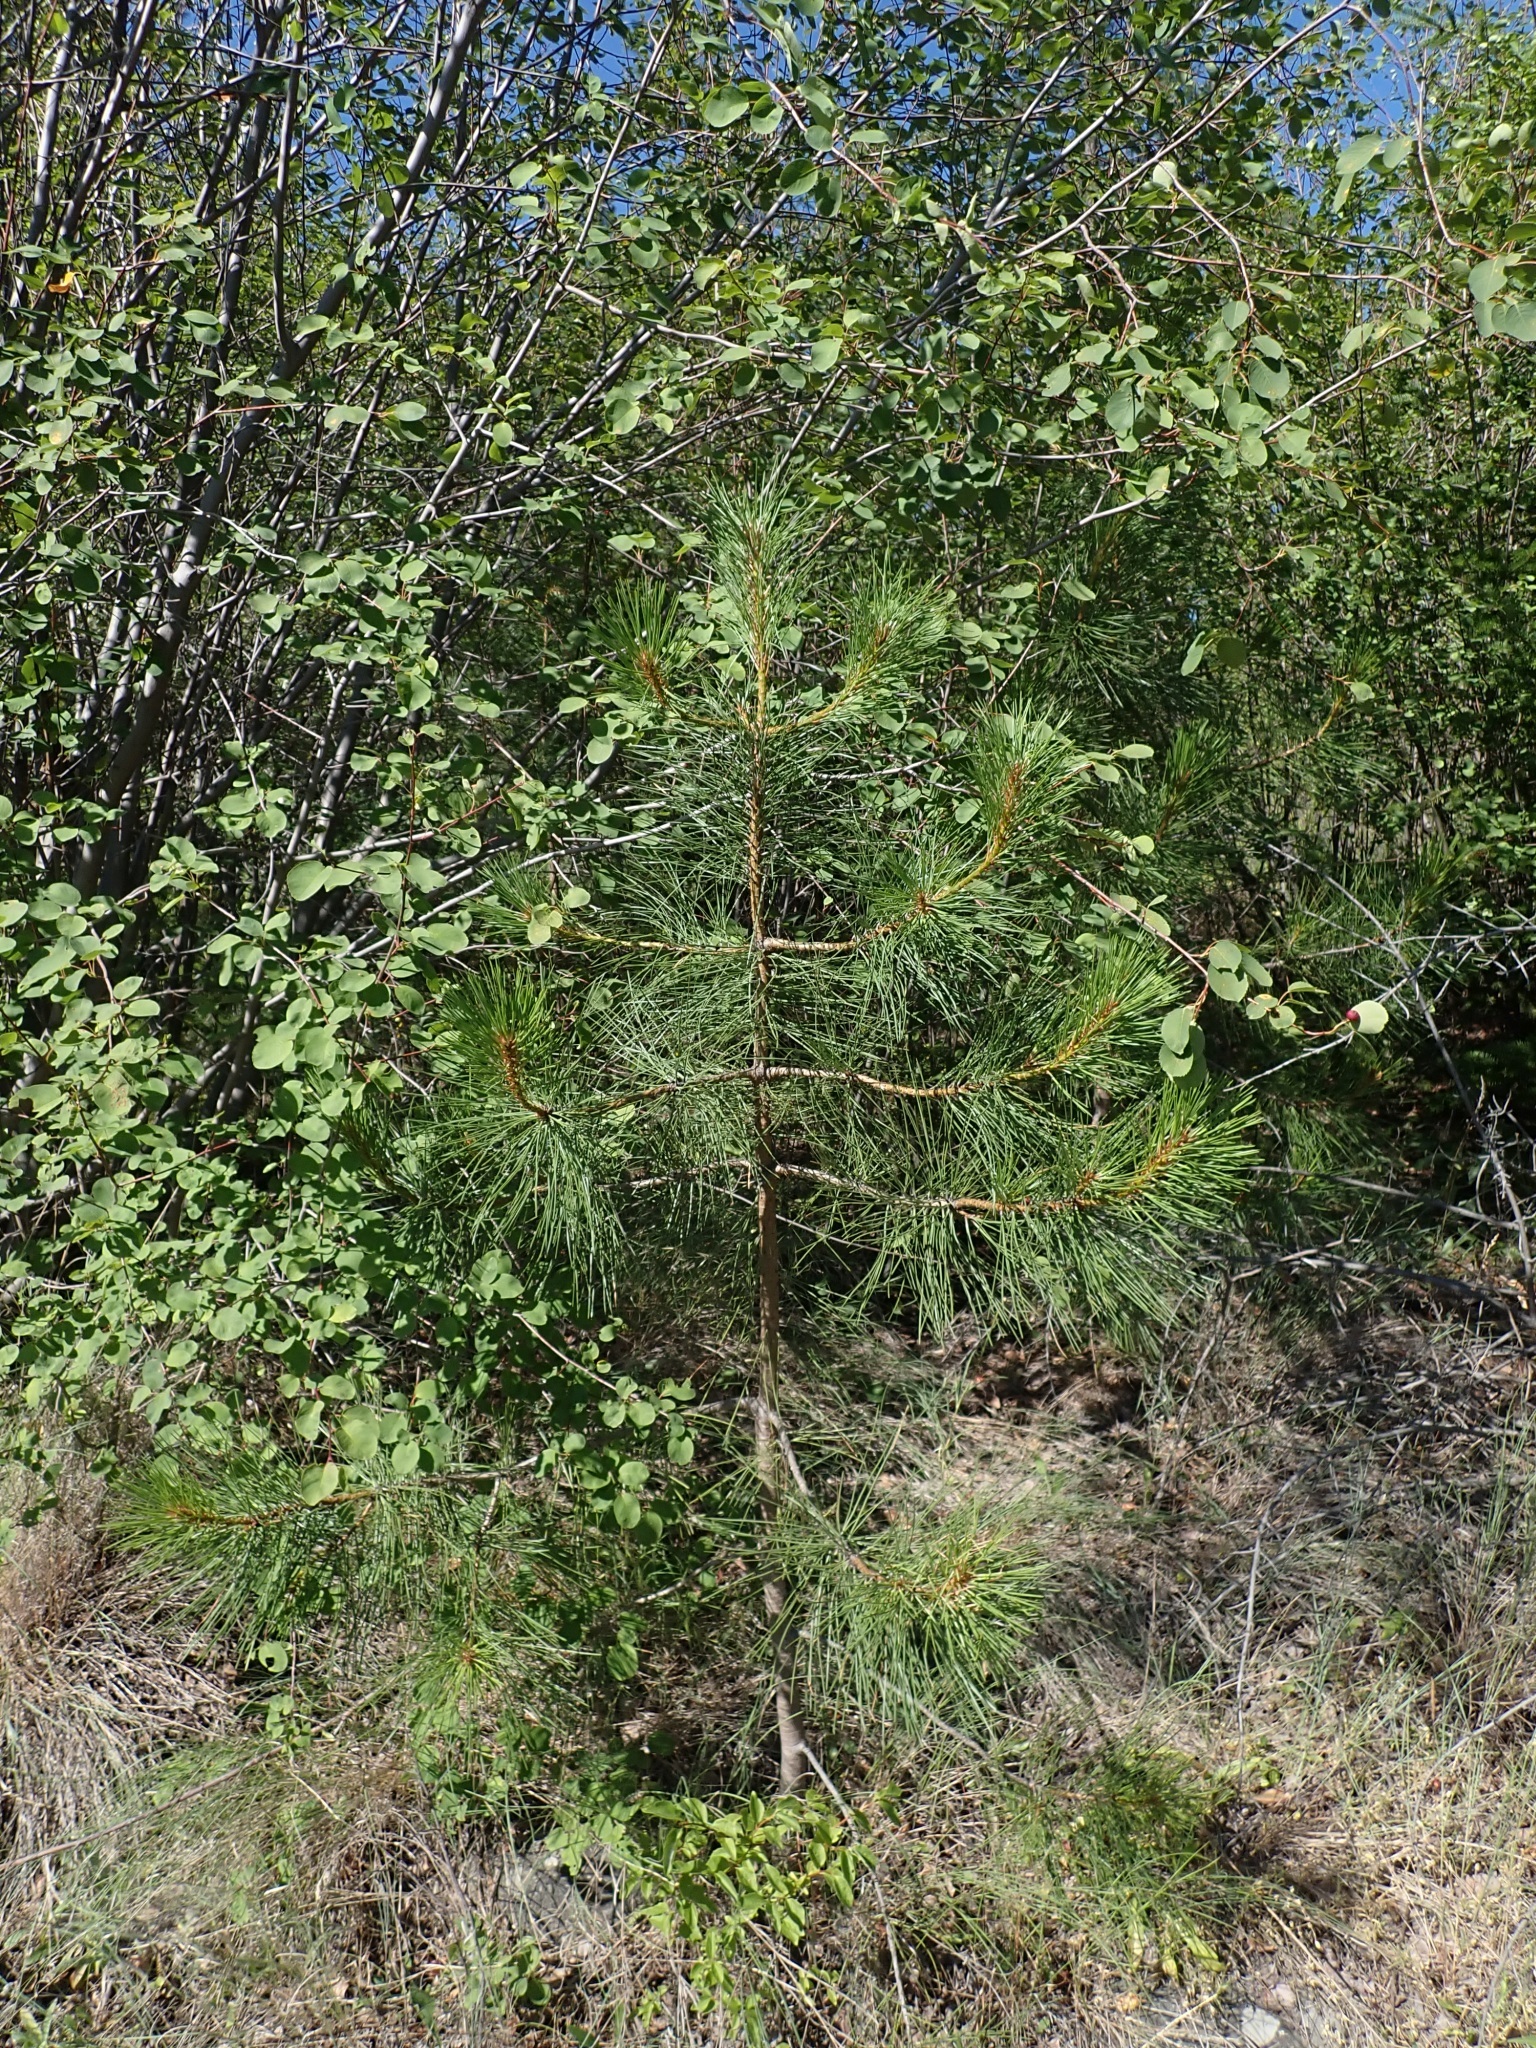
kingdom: Plantae
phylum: Tracheophyta
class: Pinopsida
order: Pinales
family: Pinaceae
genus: Pinus
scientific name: Pinus ponderosa
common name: Western yellow-pine
